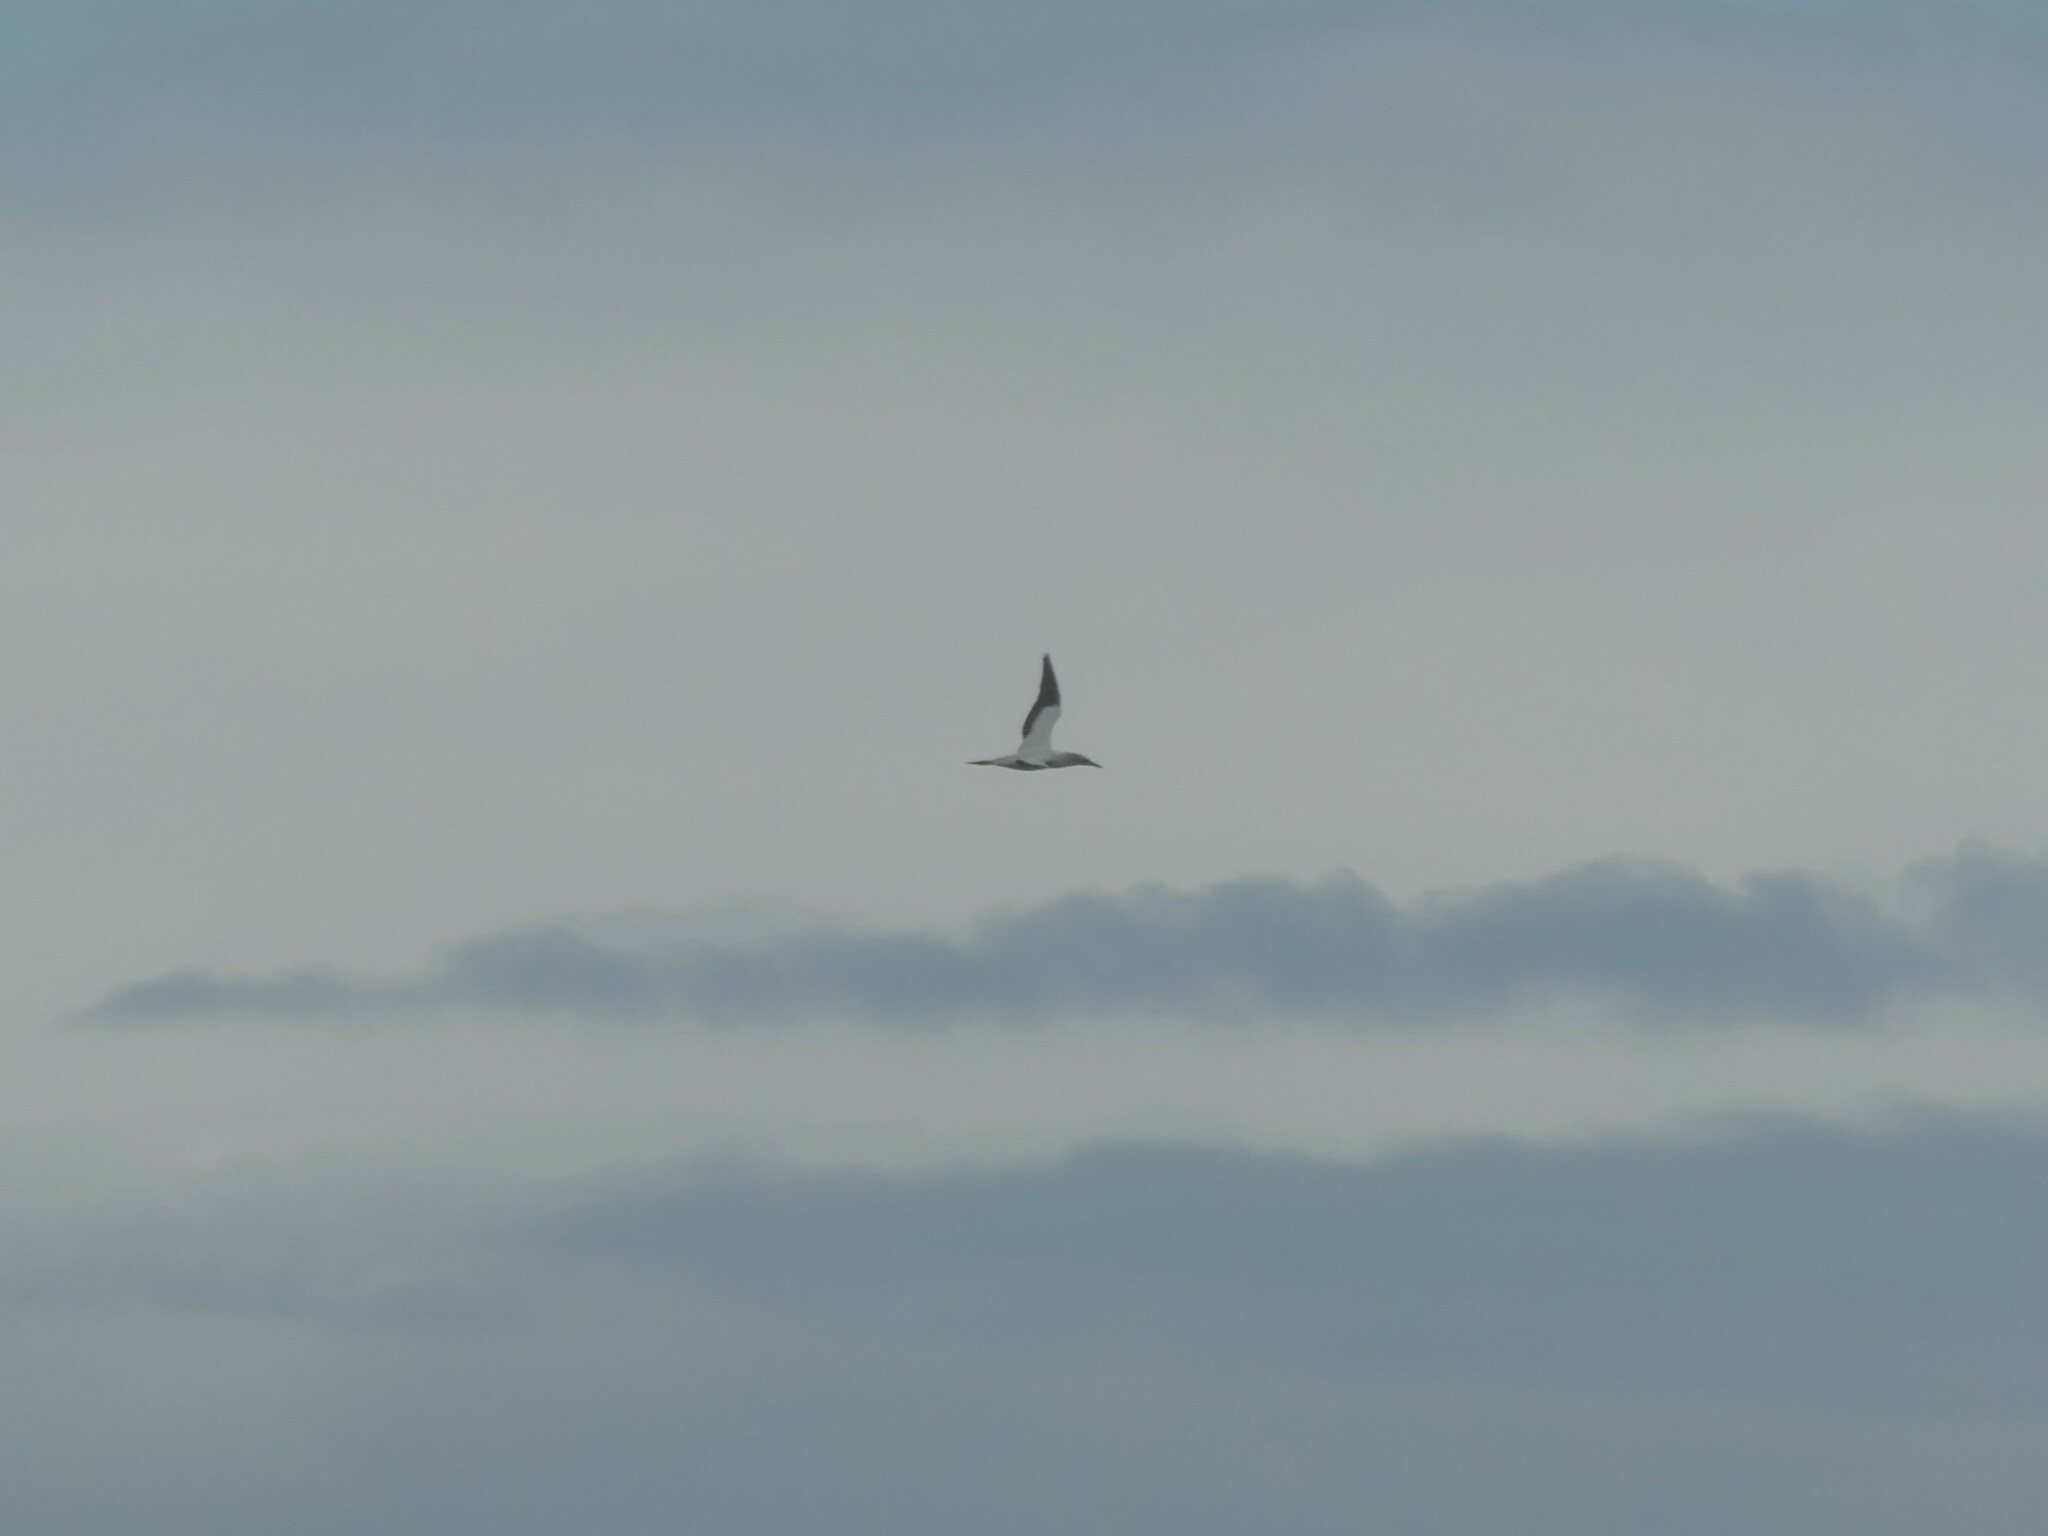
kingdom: Animalia
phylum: Chordata
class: Aves
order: Suliformes
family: Sulidae
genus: Morus
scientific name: Morus serrator
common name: Australasian gannet
